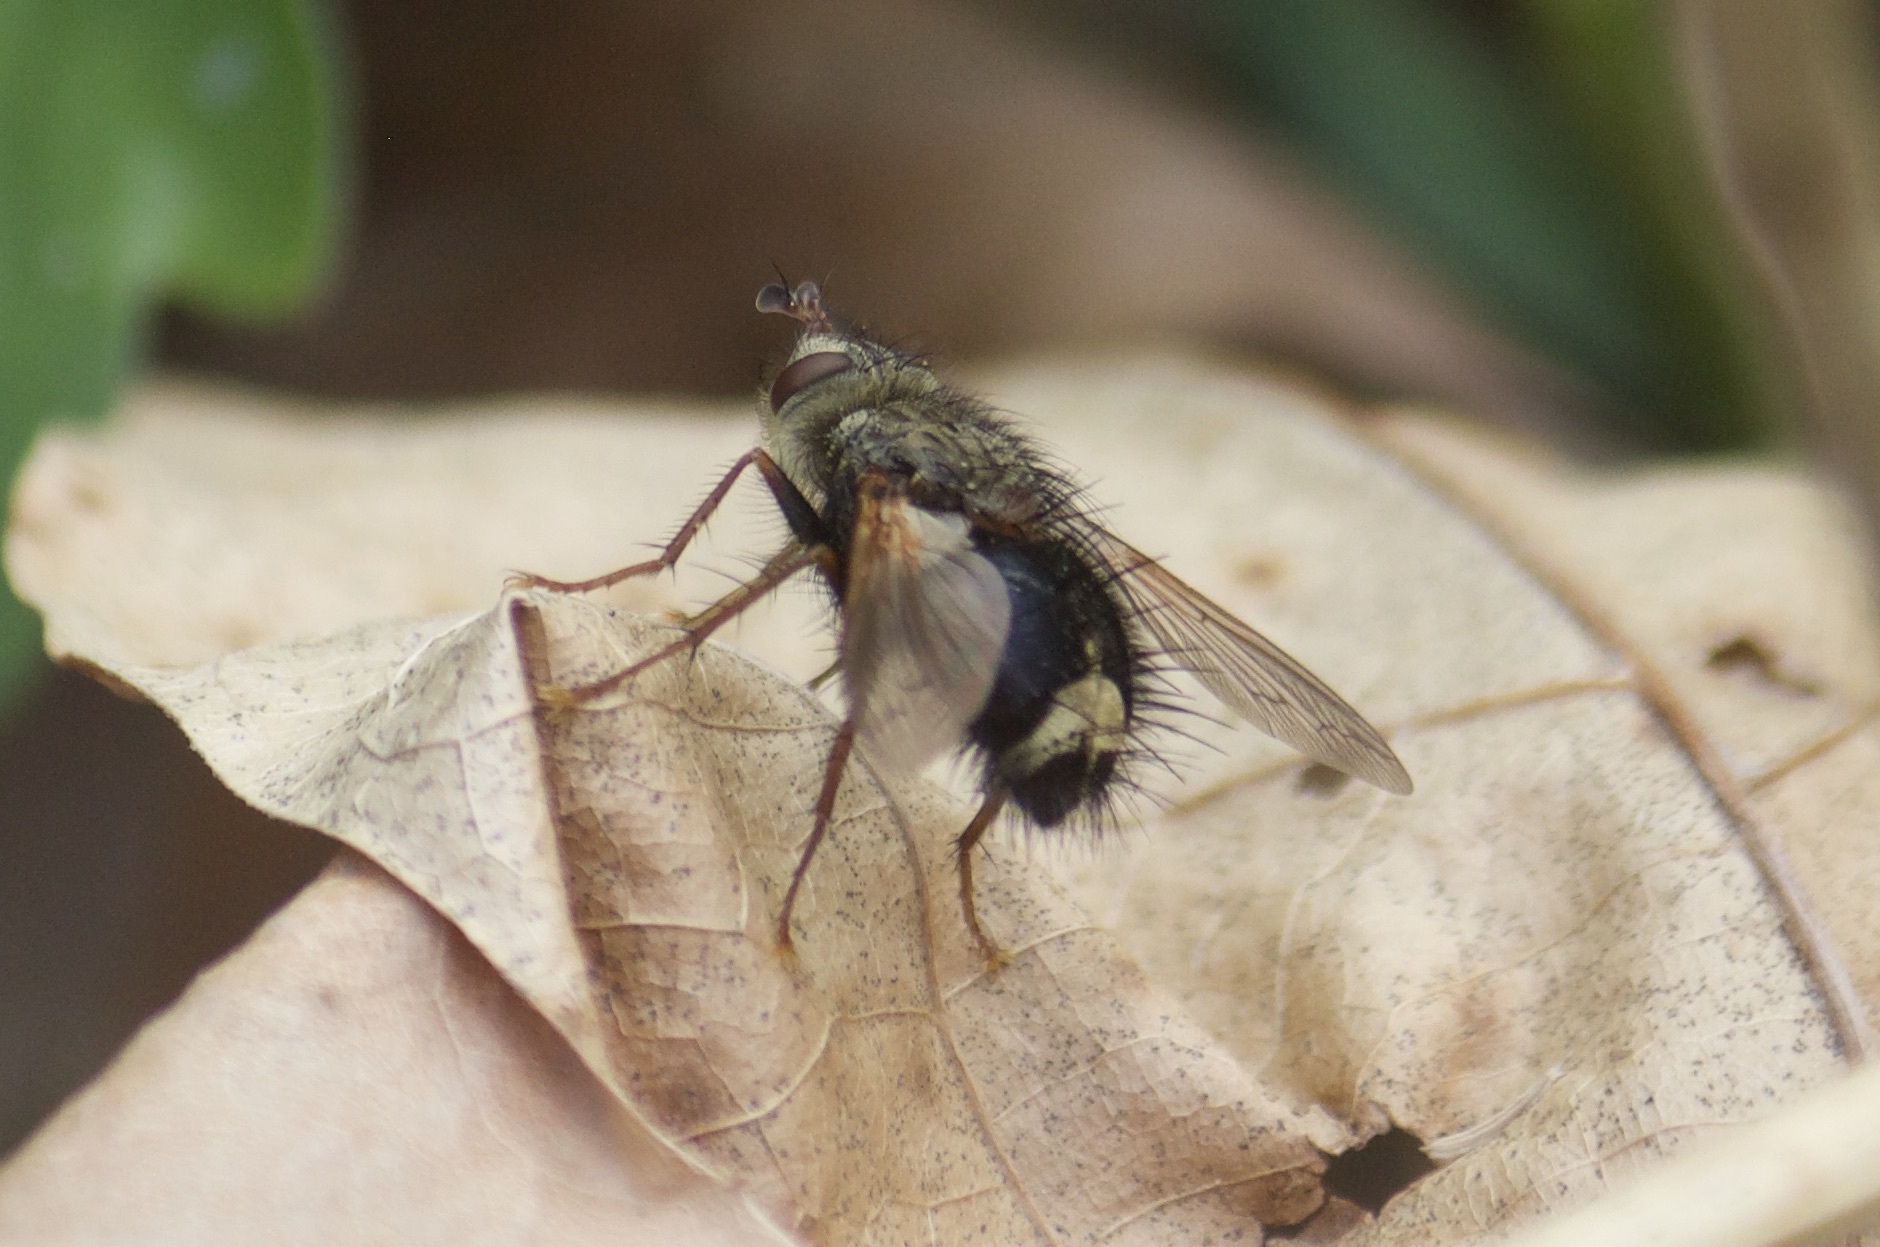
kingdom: Animalia
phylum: Arthropoda
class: Insecta
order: Diptera
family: Tachinidae
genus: Epalpus
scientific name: Epalpus signifer
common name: Early tachinid fly
